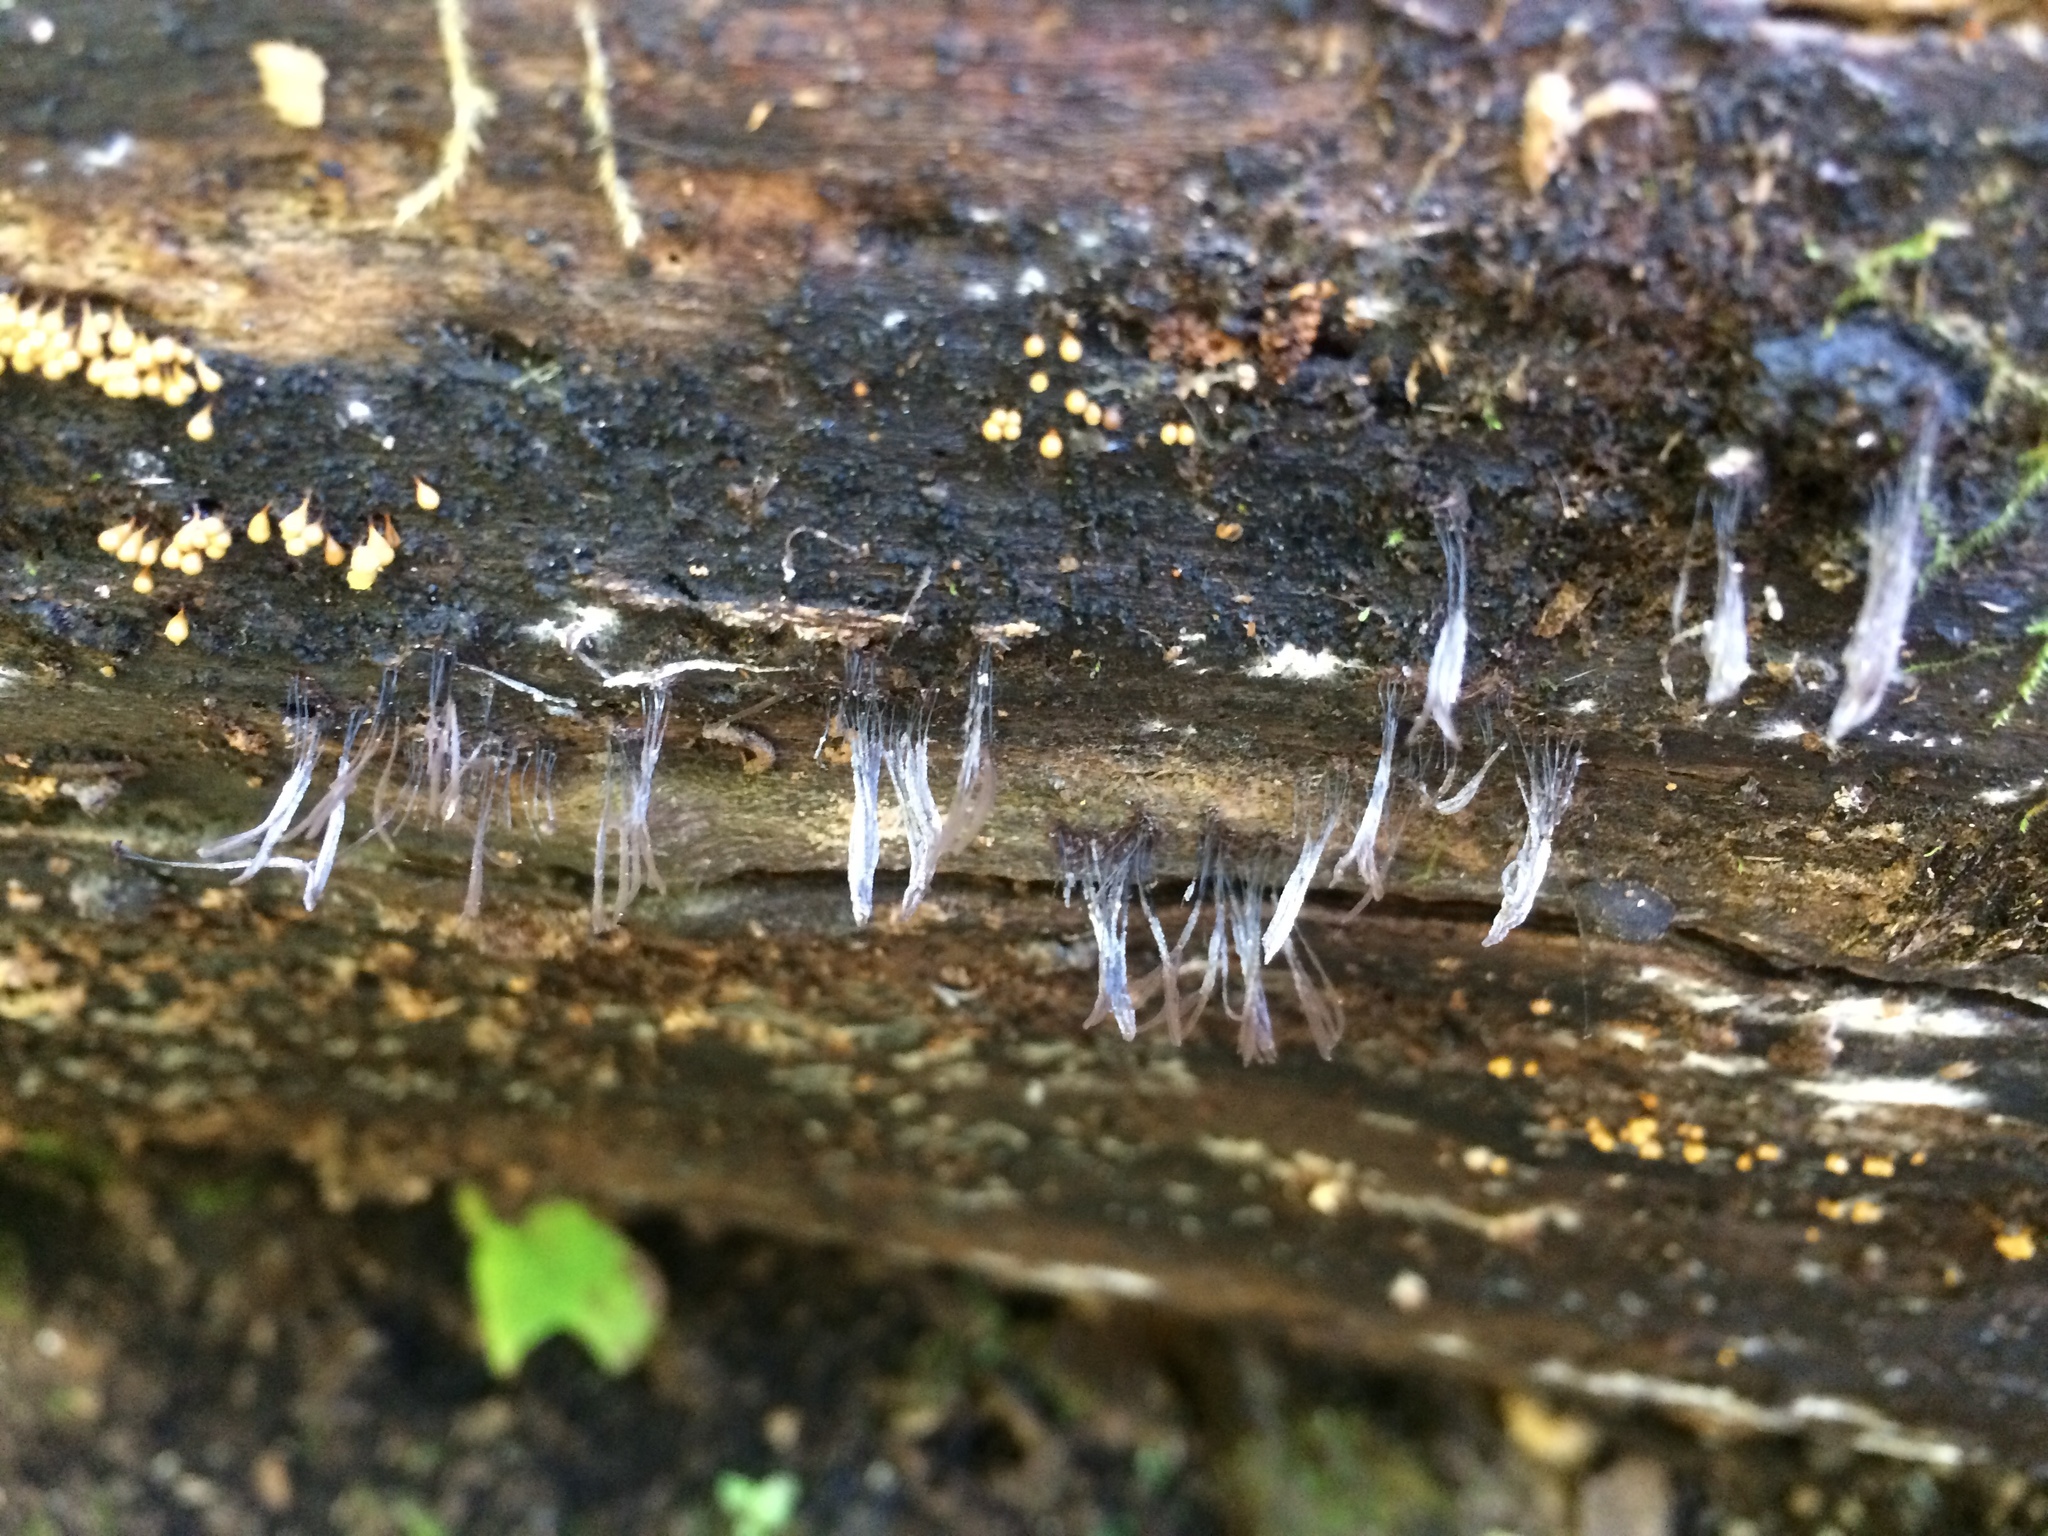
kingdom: Fungi
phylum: Ascomycota
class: Sordariomycetes
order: Hypocreales
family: Bionectriaceae
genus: Nectriopsis
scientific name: Nectriopsis rexiana
